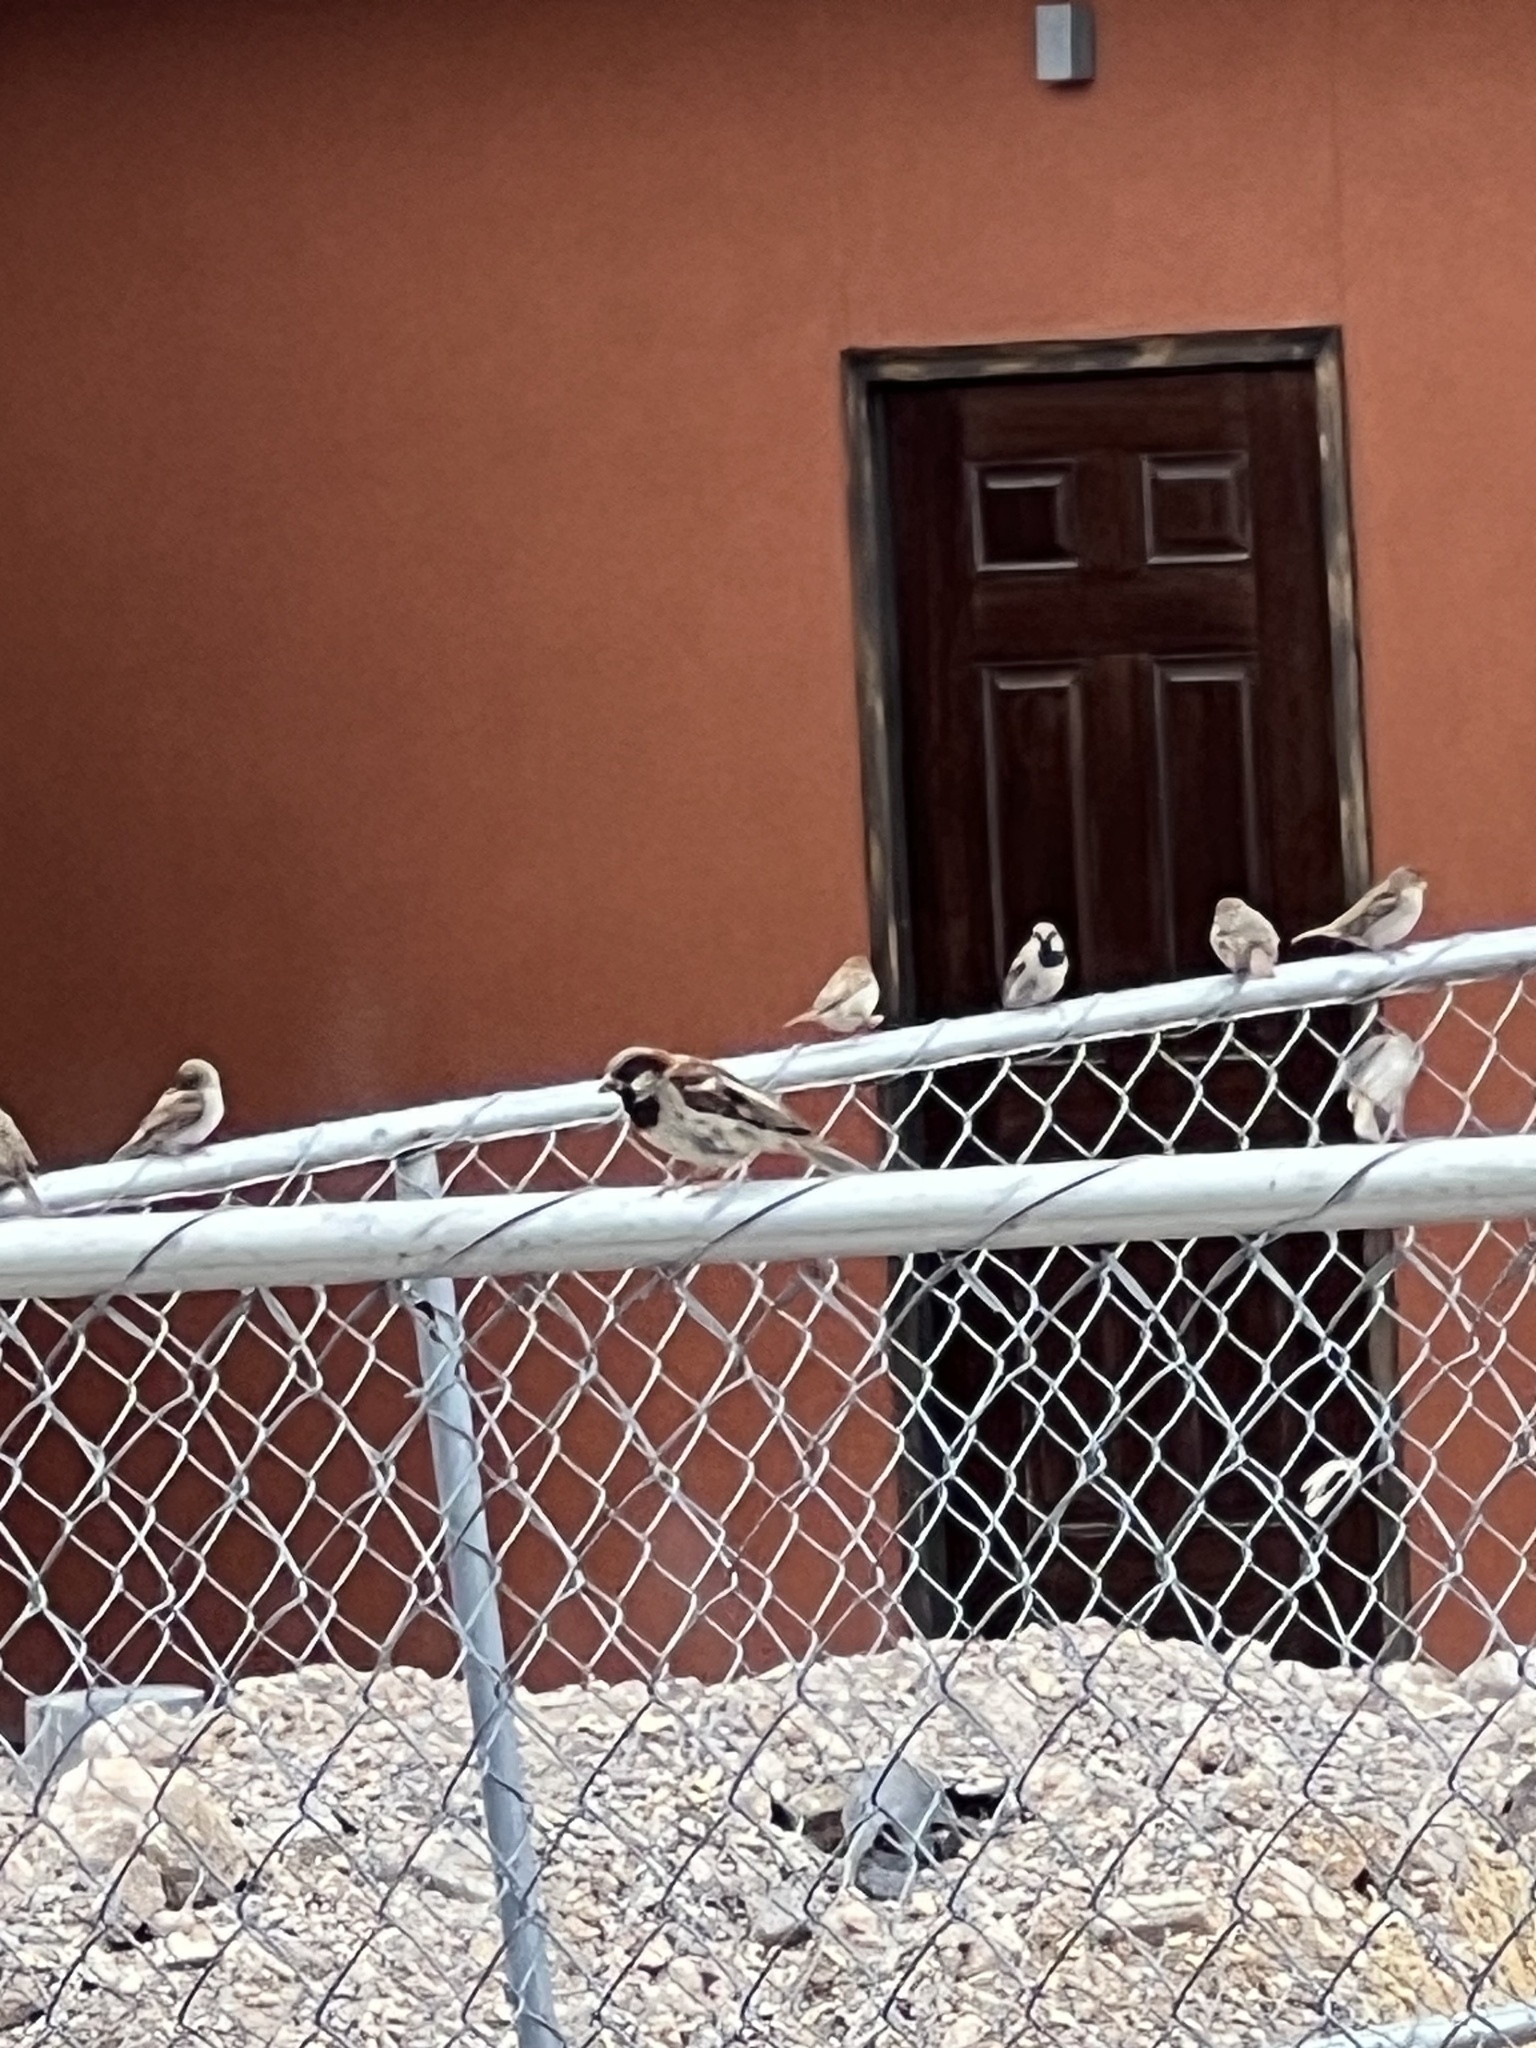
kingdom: Animalia
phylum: Chordata
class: Aves
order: Passeriformes
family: Passeridae
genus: Passer
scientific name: Passer domesticus
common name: House sparrow
